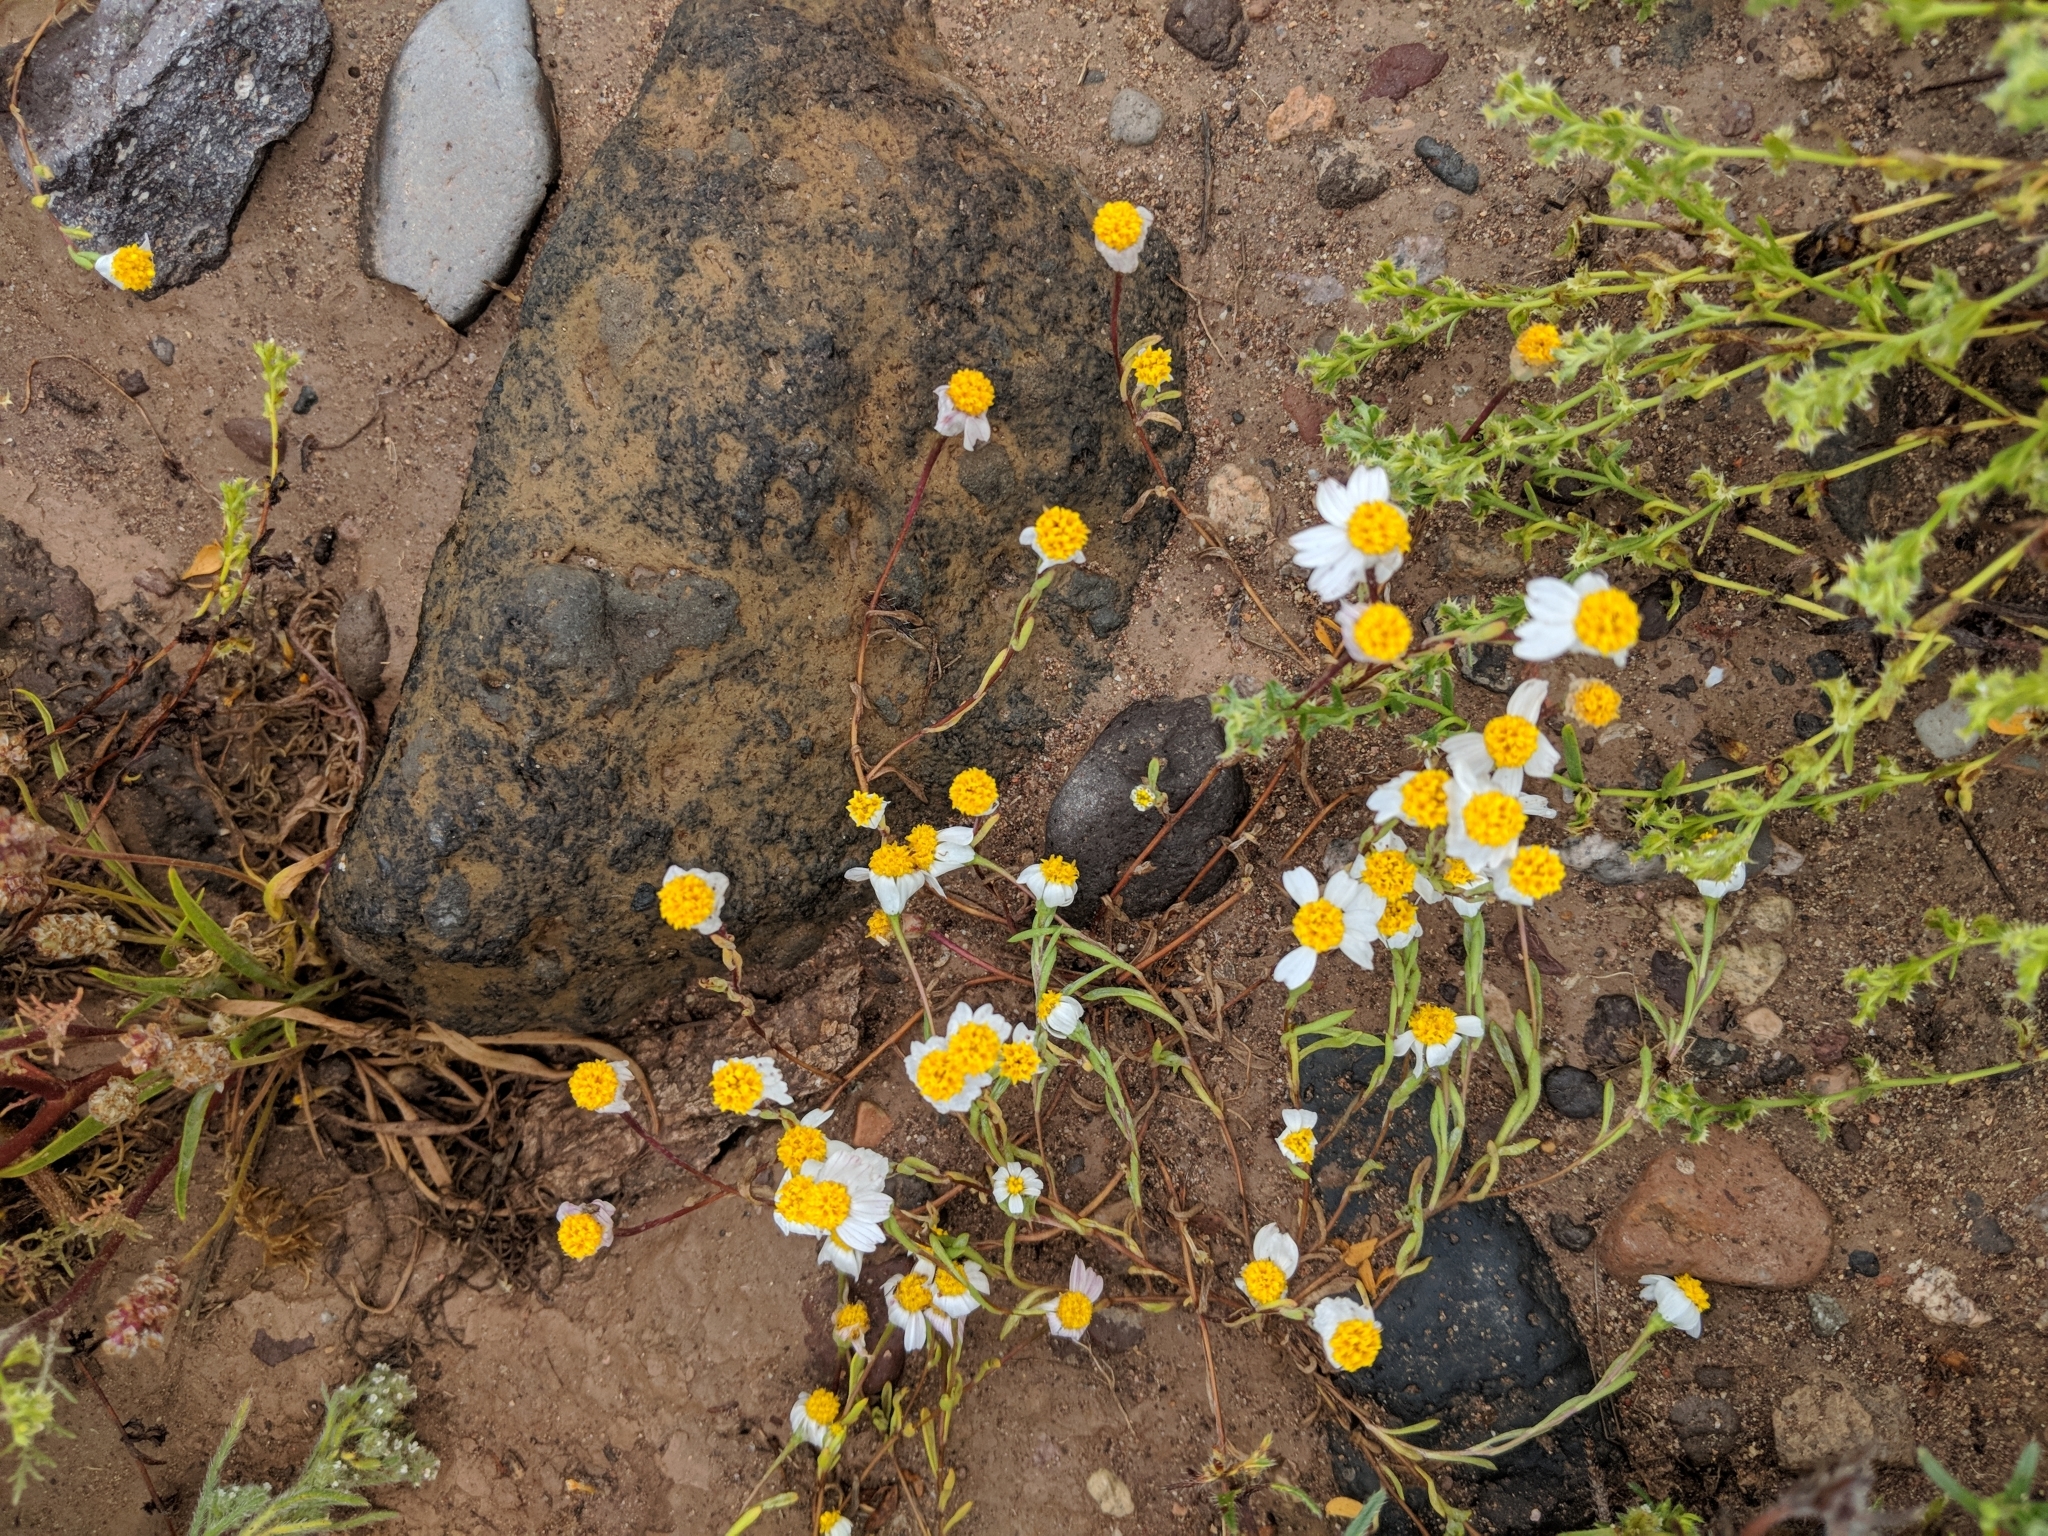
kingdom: Plantae
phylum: Tracheophyta
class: Magnoliopsida
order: Asterales
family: Asteraceae
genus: Eriophyllum
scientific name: Eriophyllum lanosum
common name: White easter-bonnets
